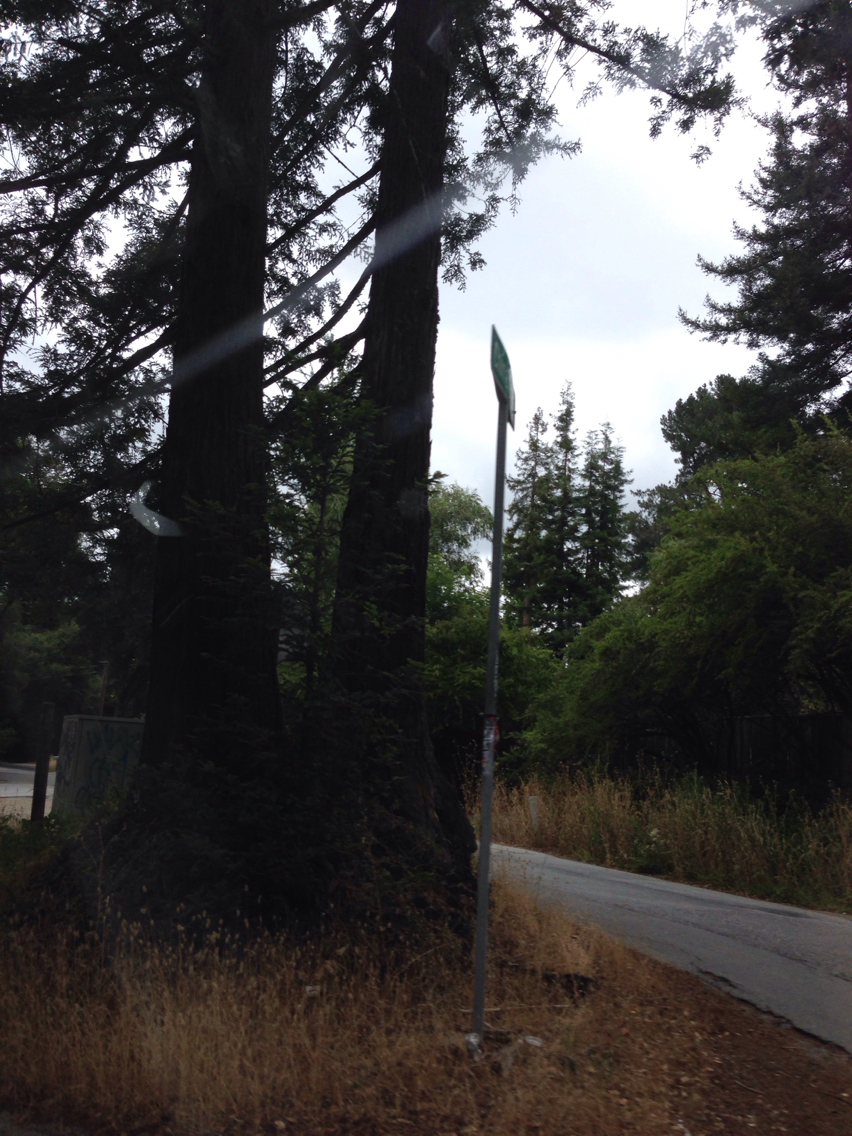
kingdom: Plantae
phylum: Tracheophyta
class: Pinopsida
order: Pinales
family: Cupressaceae
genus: Sequoia
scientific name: Sequoia sempervirens
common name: Coast redwood
